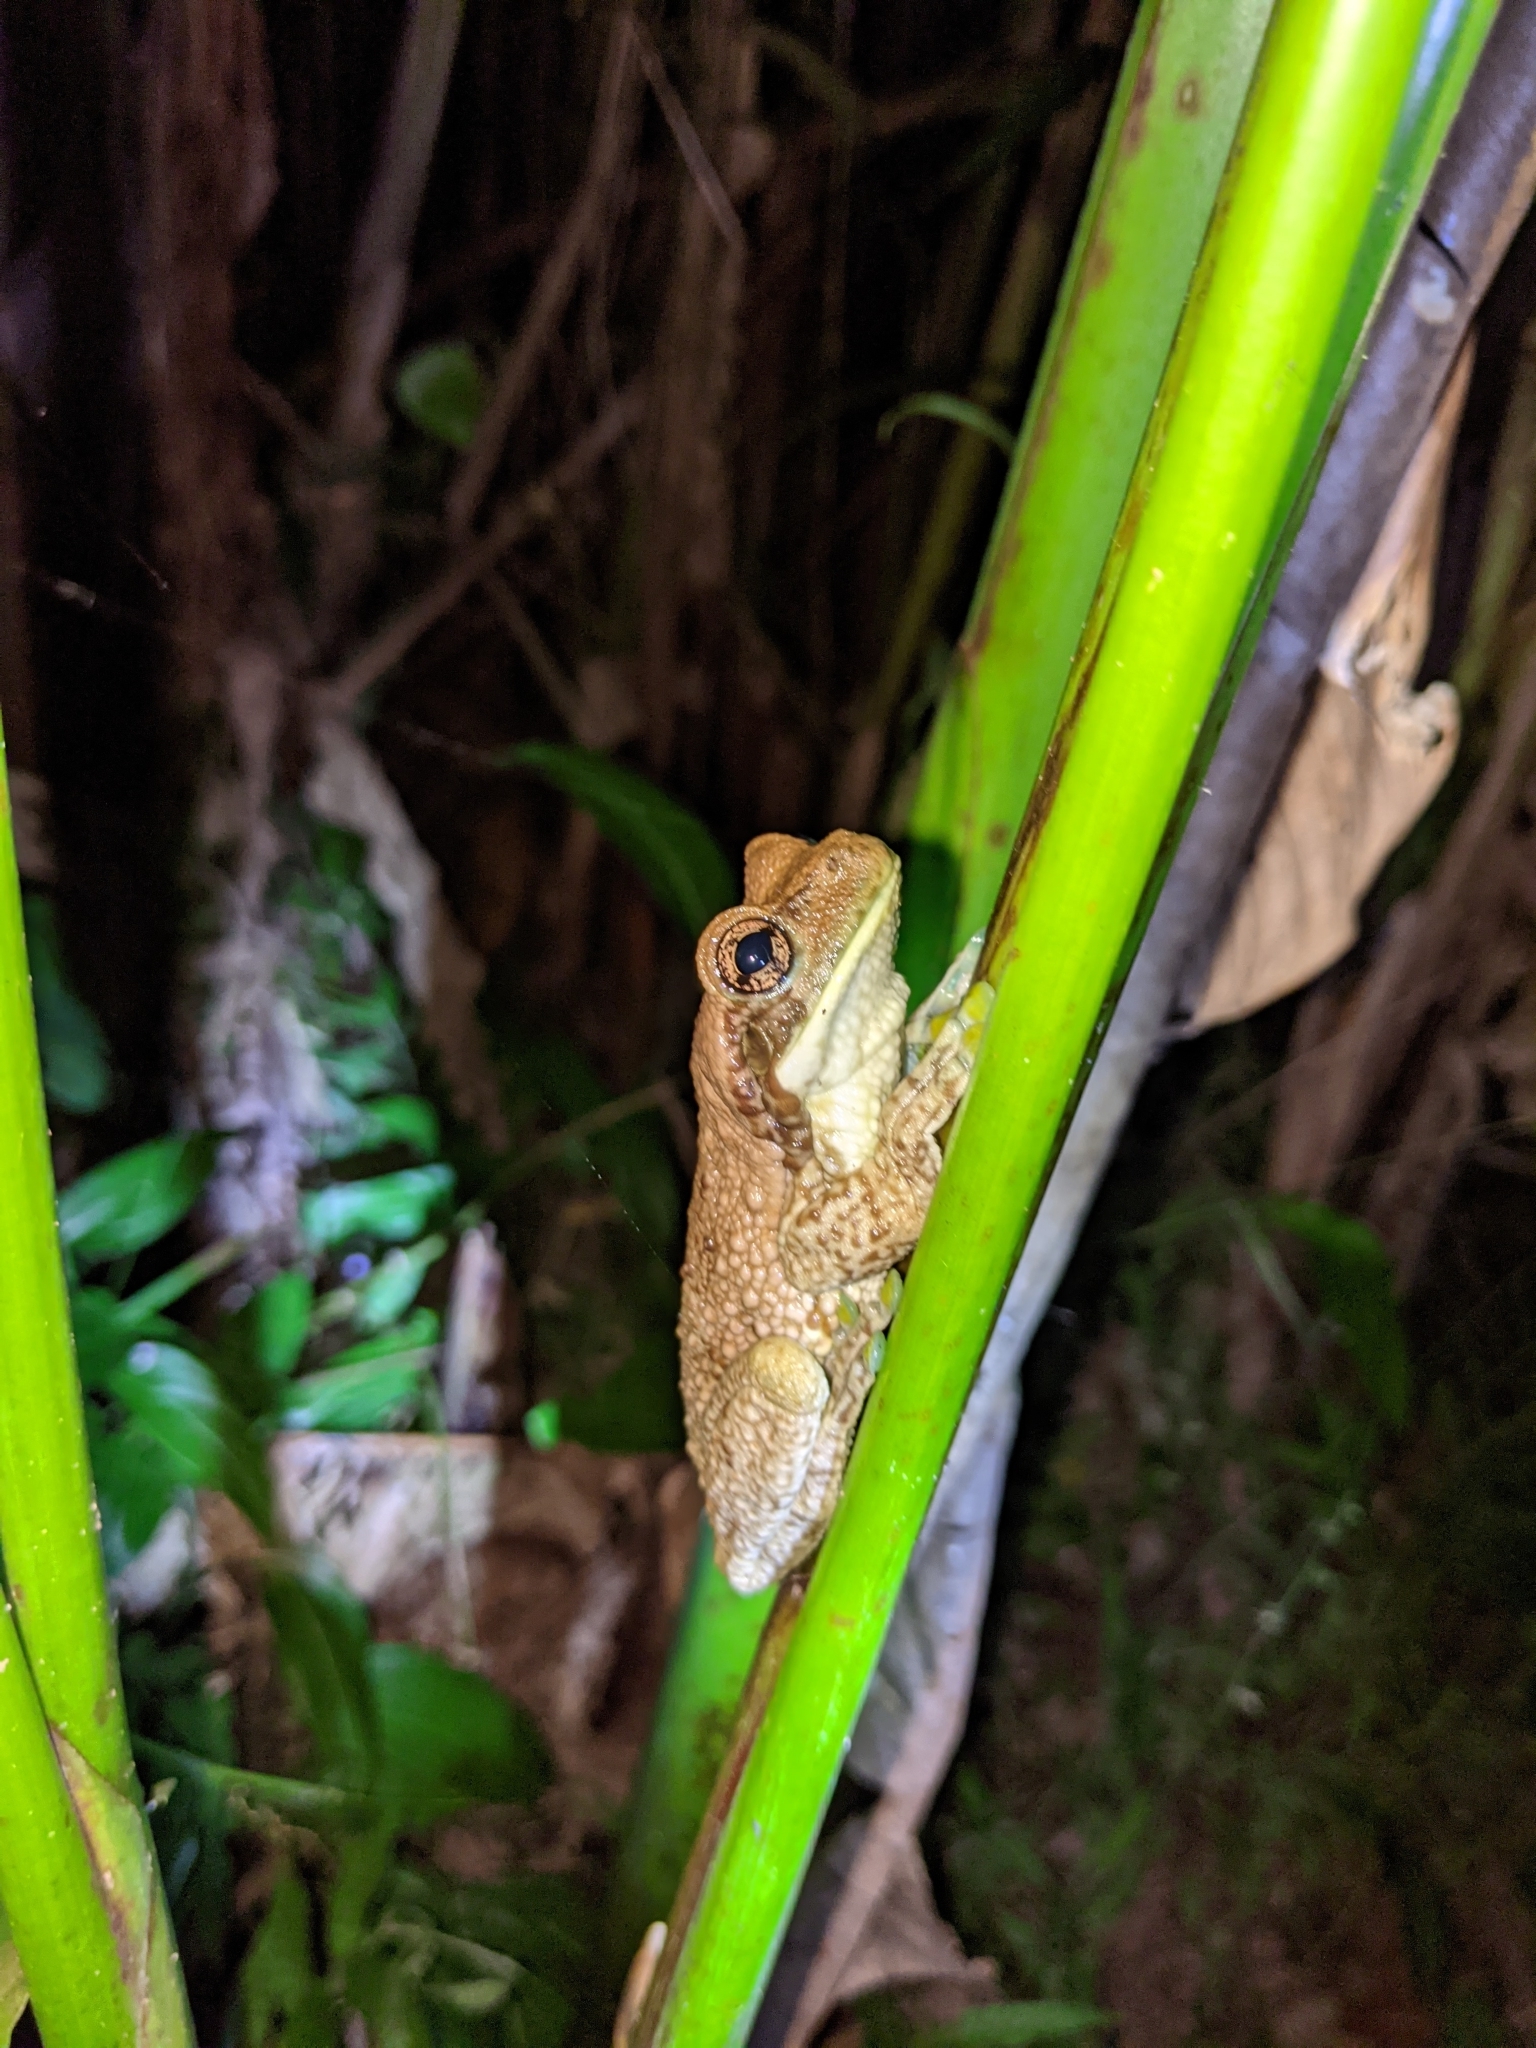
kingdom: Animalia
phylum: Chordata
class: Amphibia
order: Anura
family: Hylidae
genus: Trachycephalus
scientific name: Trachycephalus typhonius
